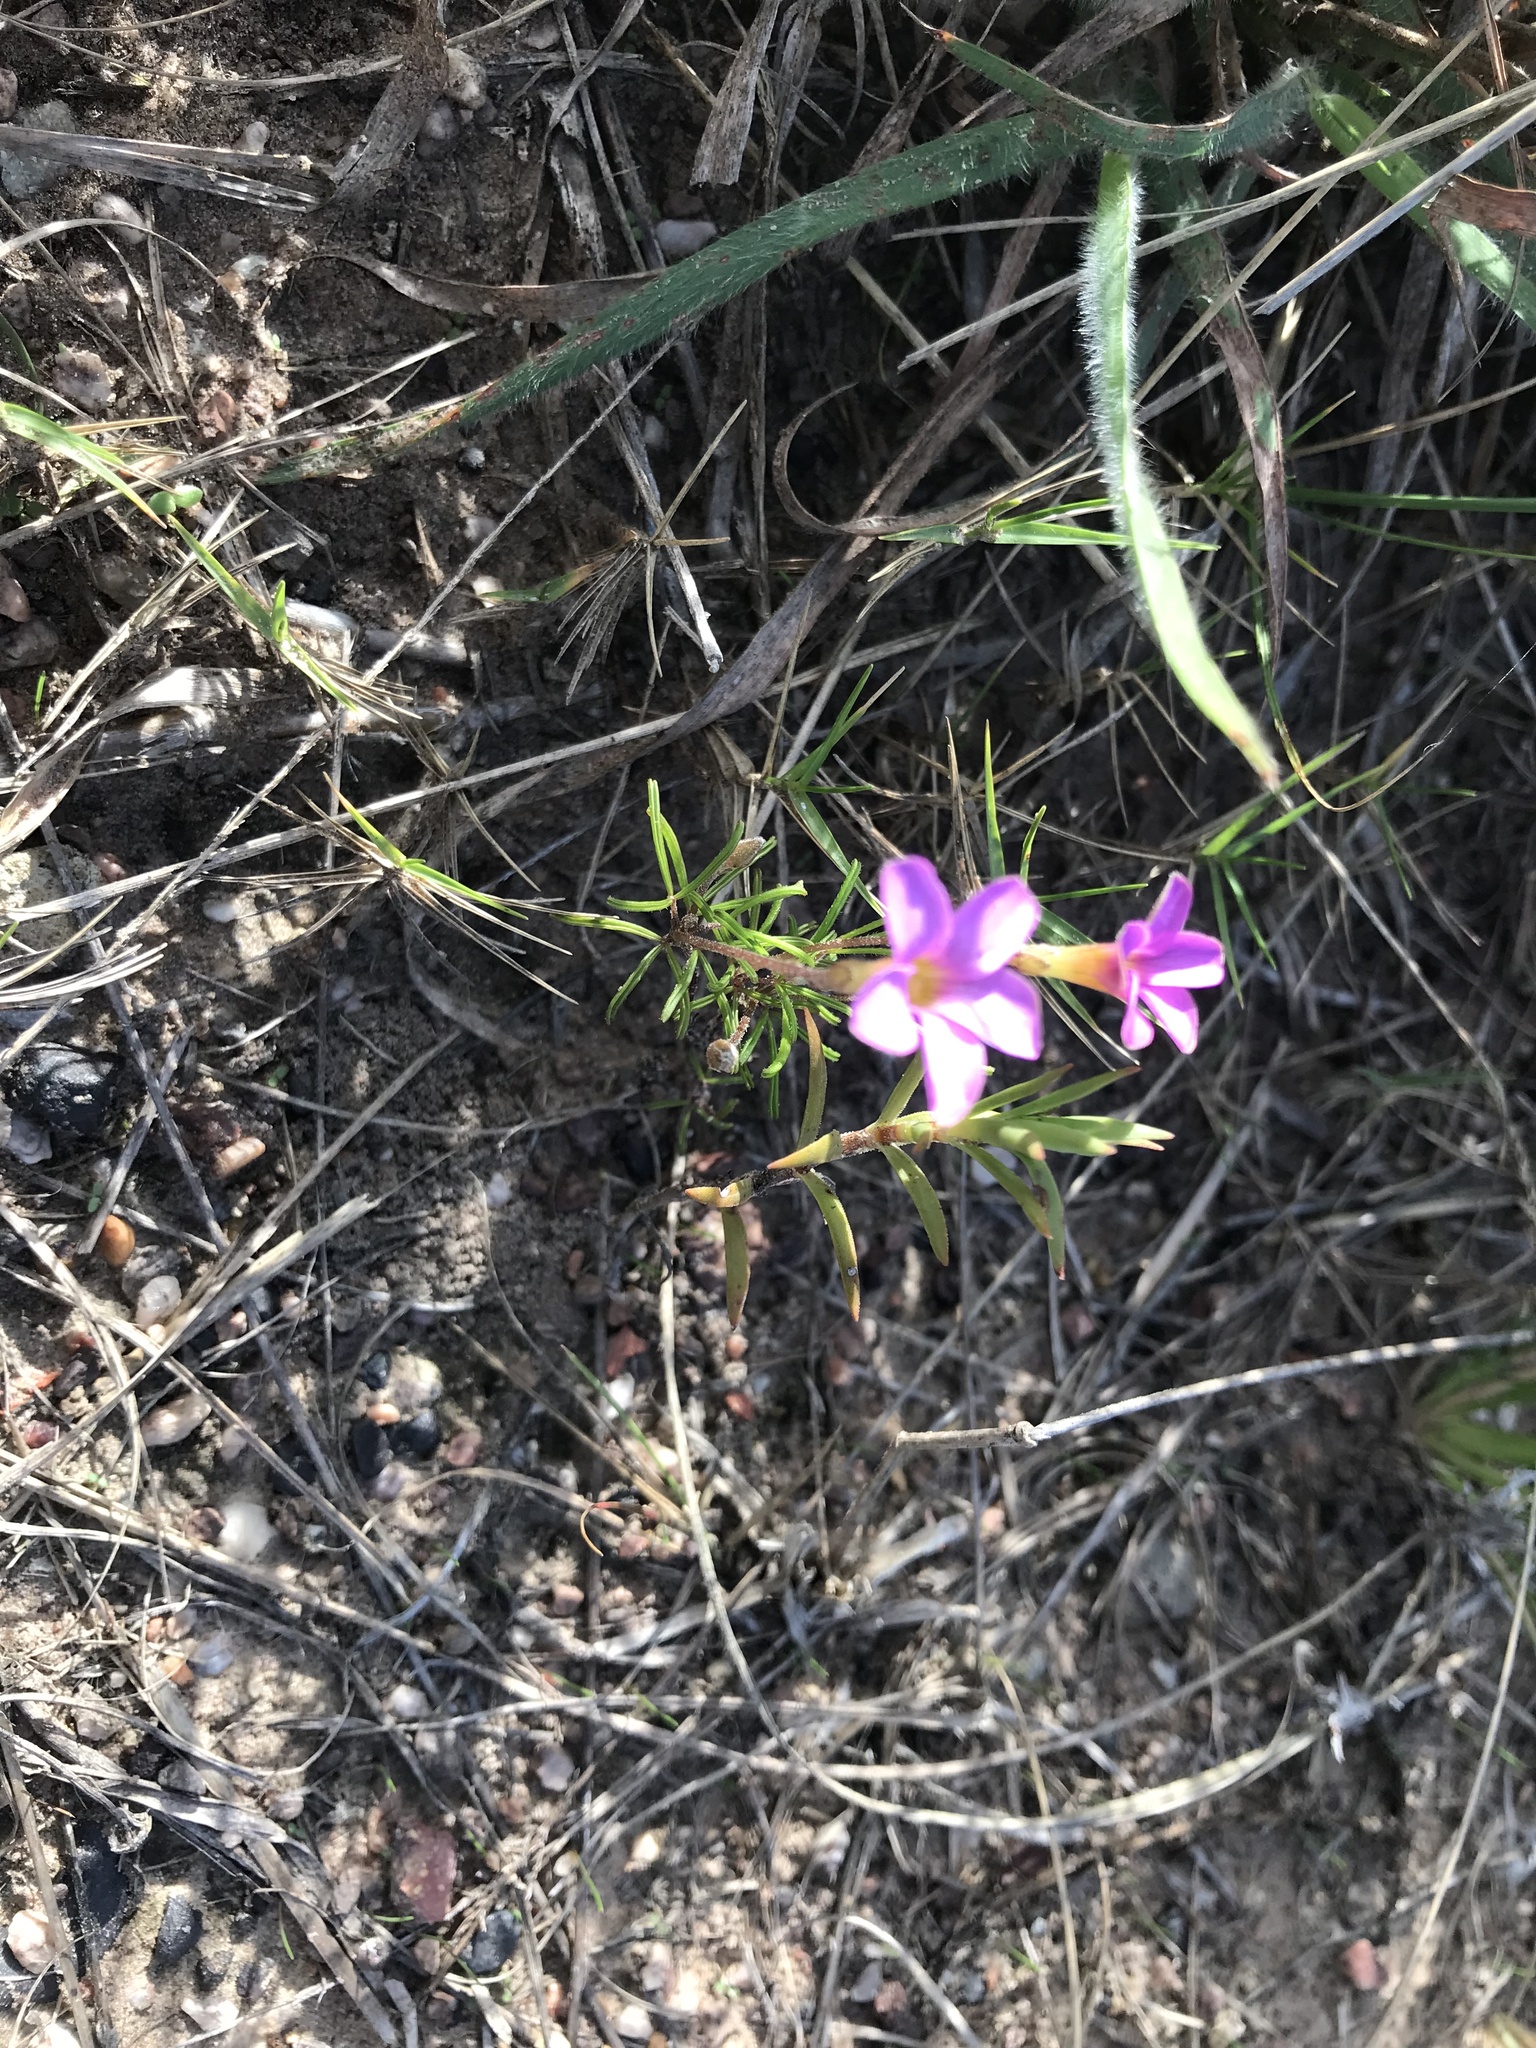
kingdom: Plantae
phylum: Tracheophyta
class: Magnoliopsida
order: Oxalidales
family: Oxalidaceae
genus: Oxalis
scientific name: Oxalis polyphylla
